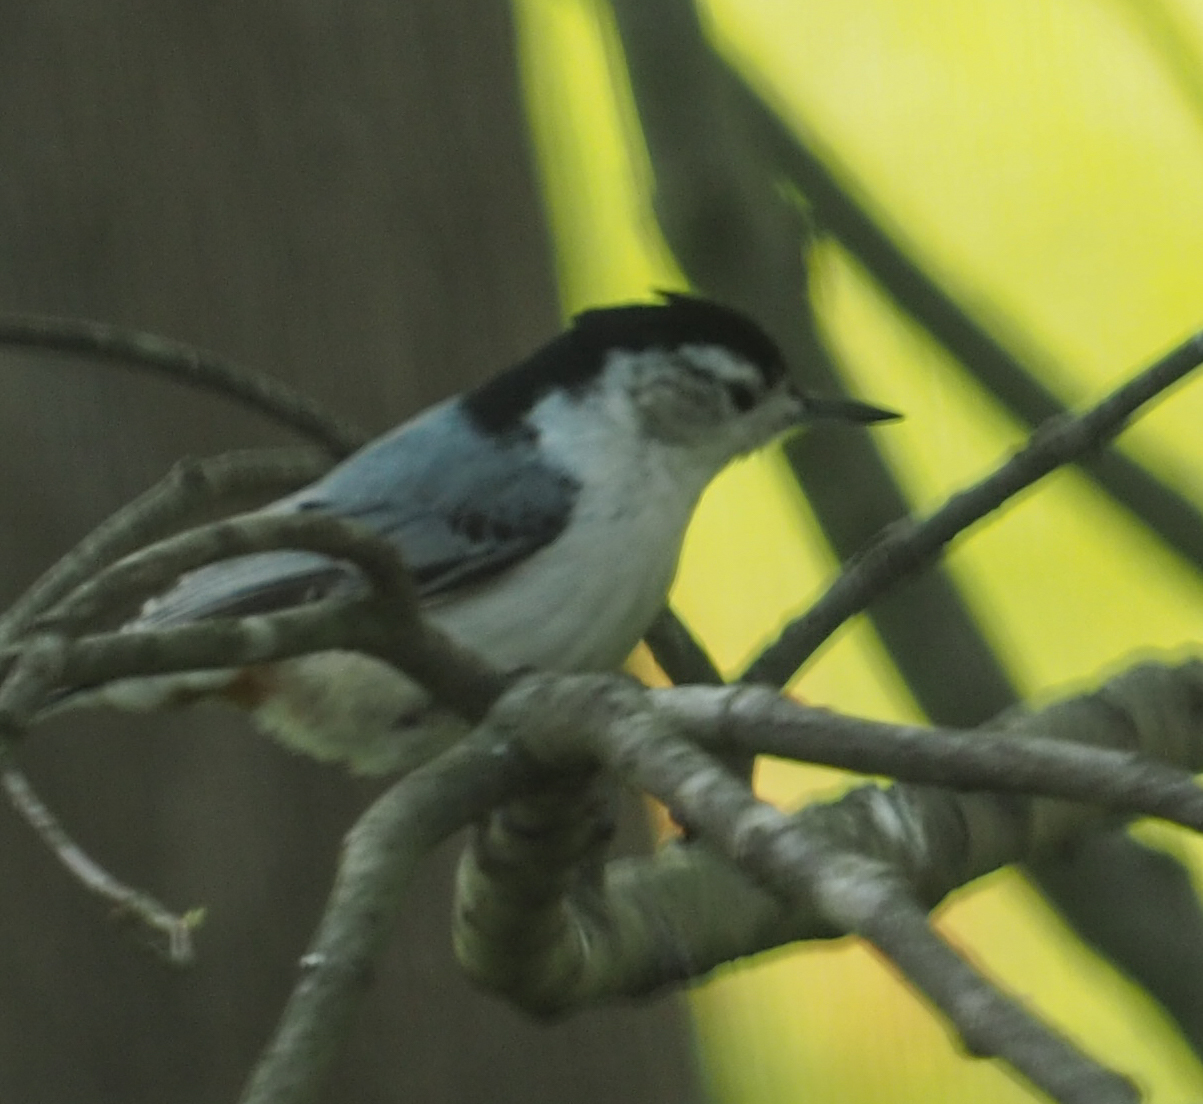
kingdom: Animalia
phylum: Chordata
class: Aves
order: Passeriformes
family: Sittidae
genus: Sitta
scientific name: Sitta carolinensis
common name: White-breasted nuthatch
